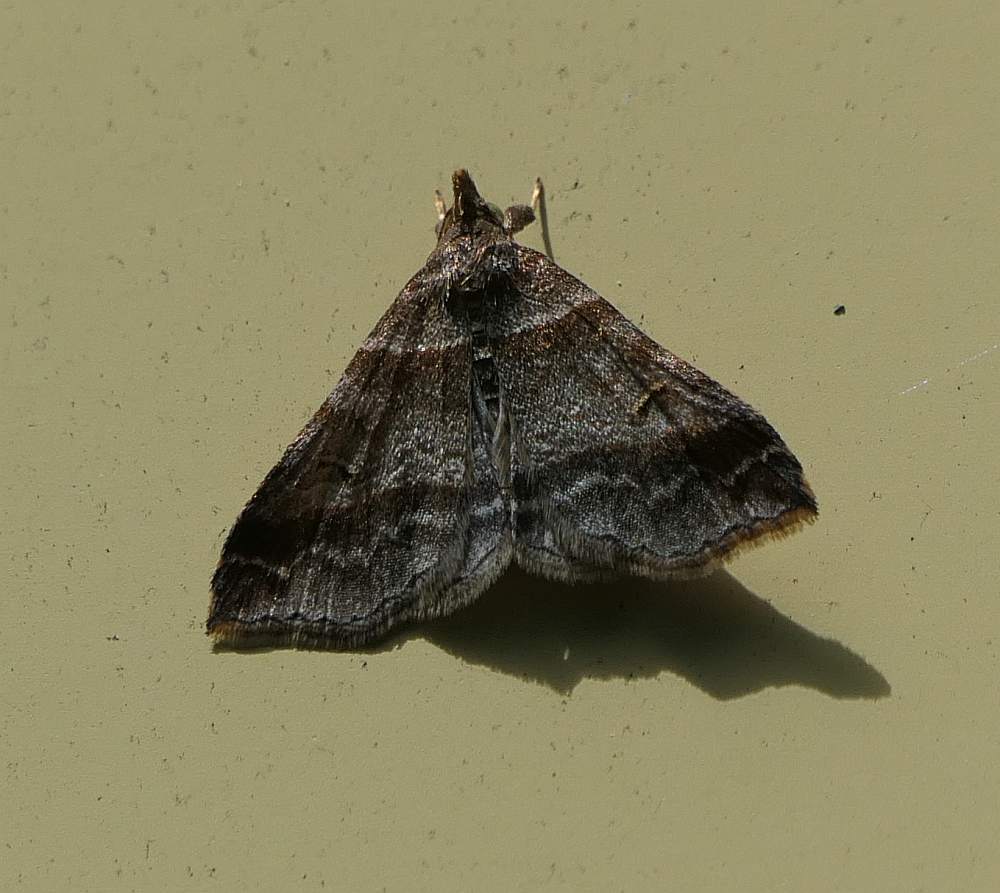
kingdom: Animalia
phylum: Arthropoda
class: Insecta
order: Lepidoptera
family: Erebidae
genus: Phaeolita
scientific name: Phaeolita pyramusalis
